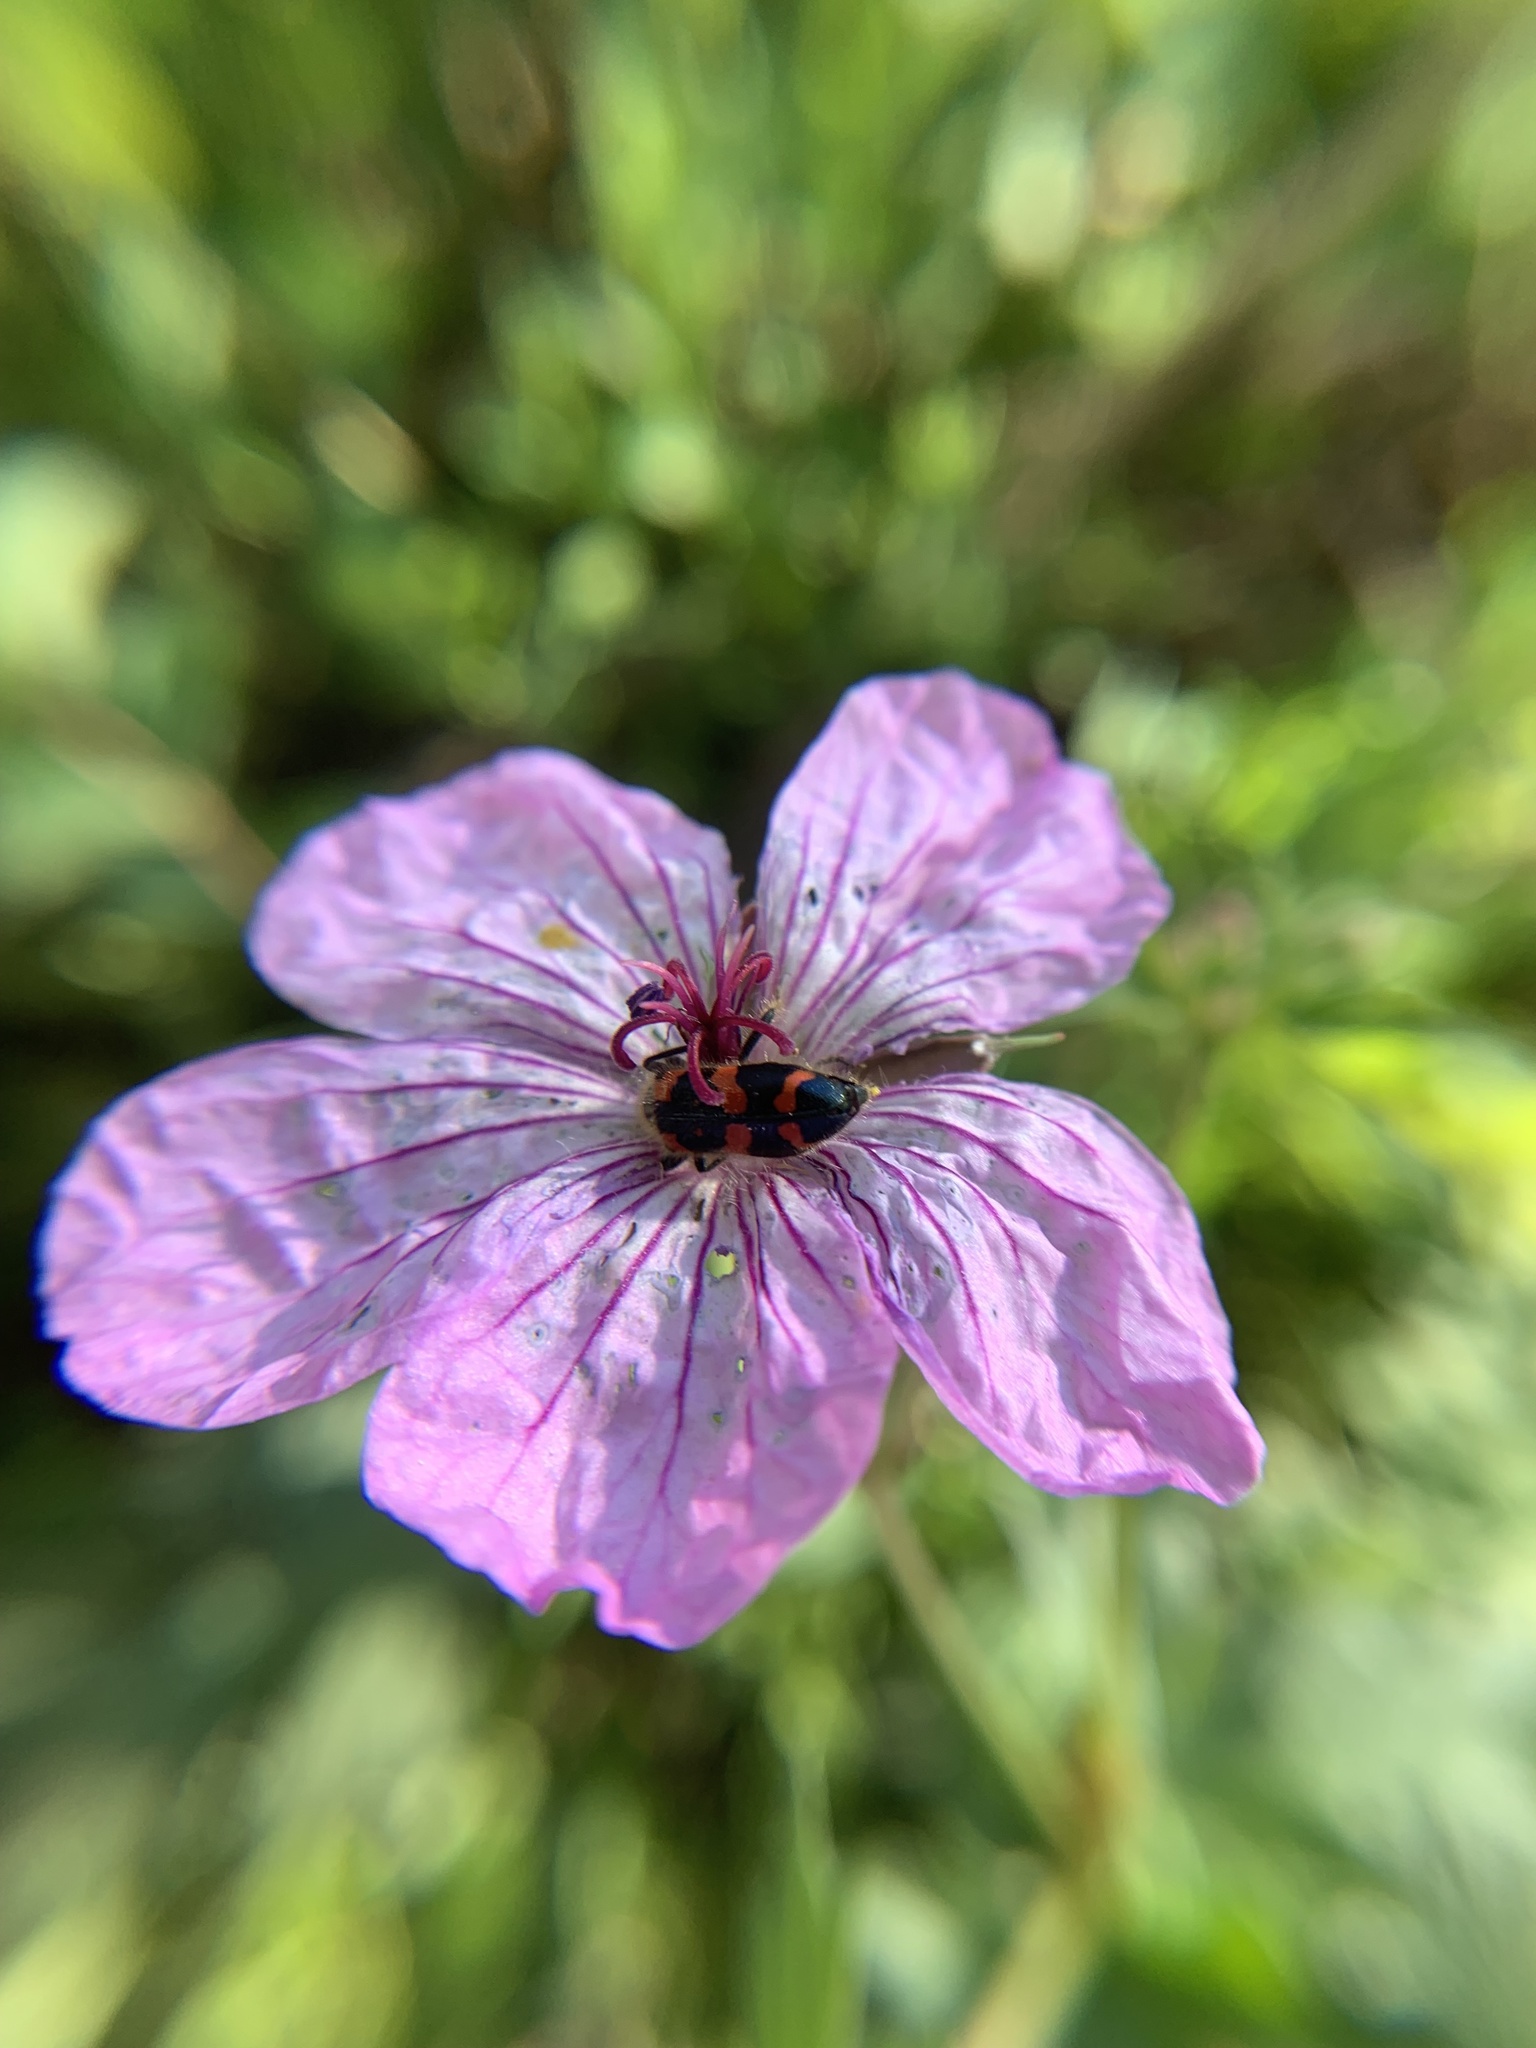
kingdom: Animalia
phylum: Arthropoda
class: Insecta
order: Coleoptera
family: Cleridae
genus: Trichodes
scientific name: Trichodes ornatus
